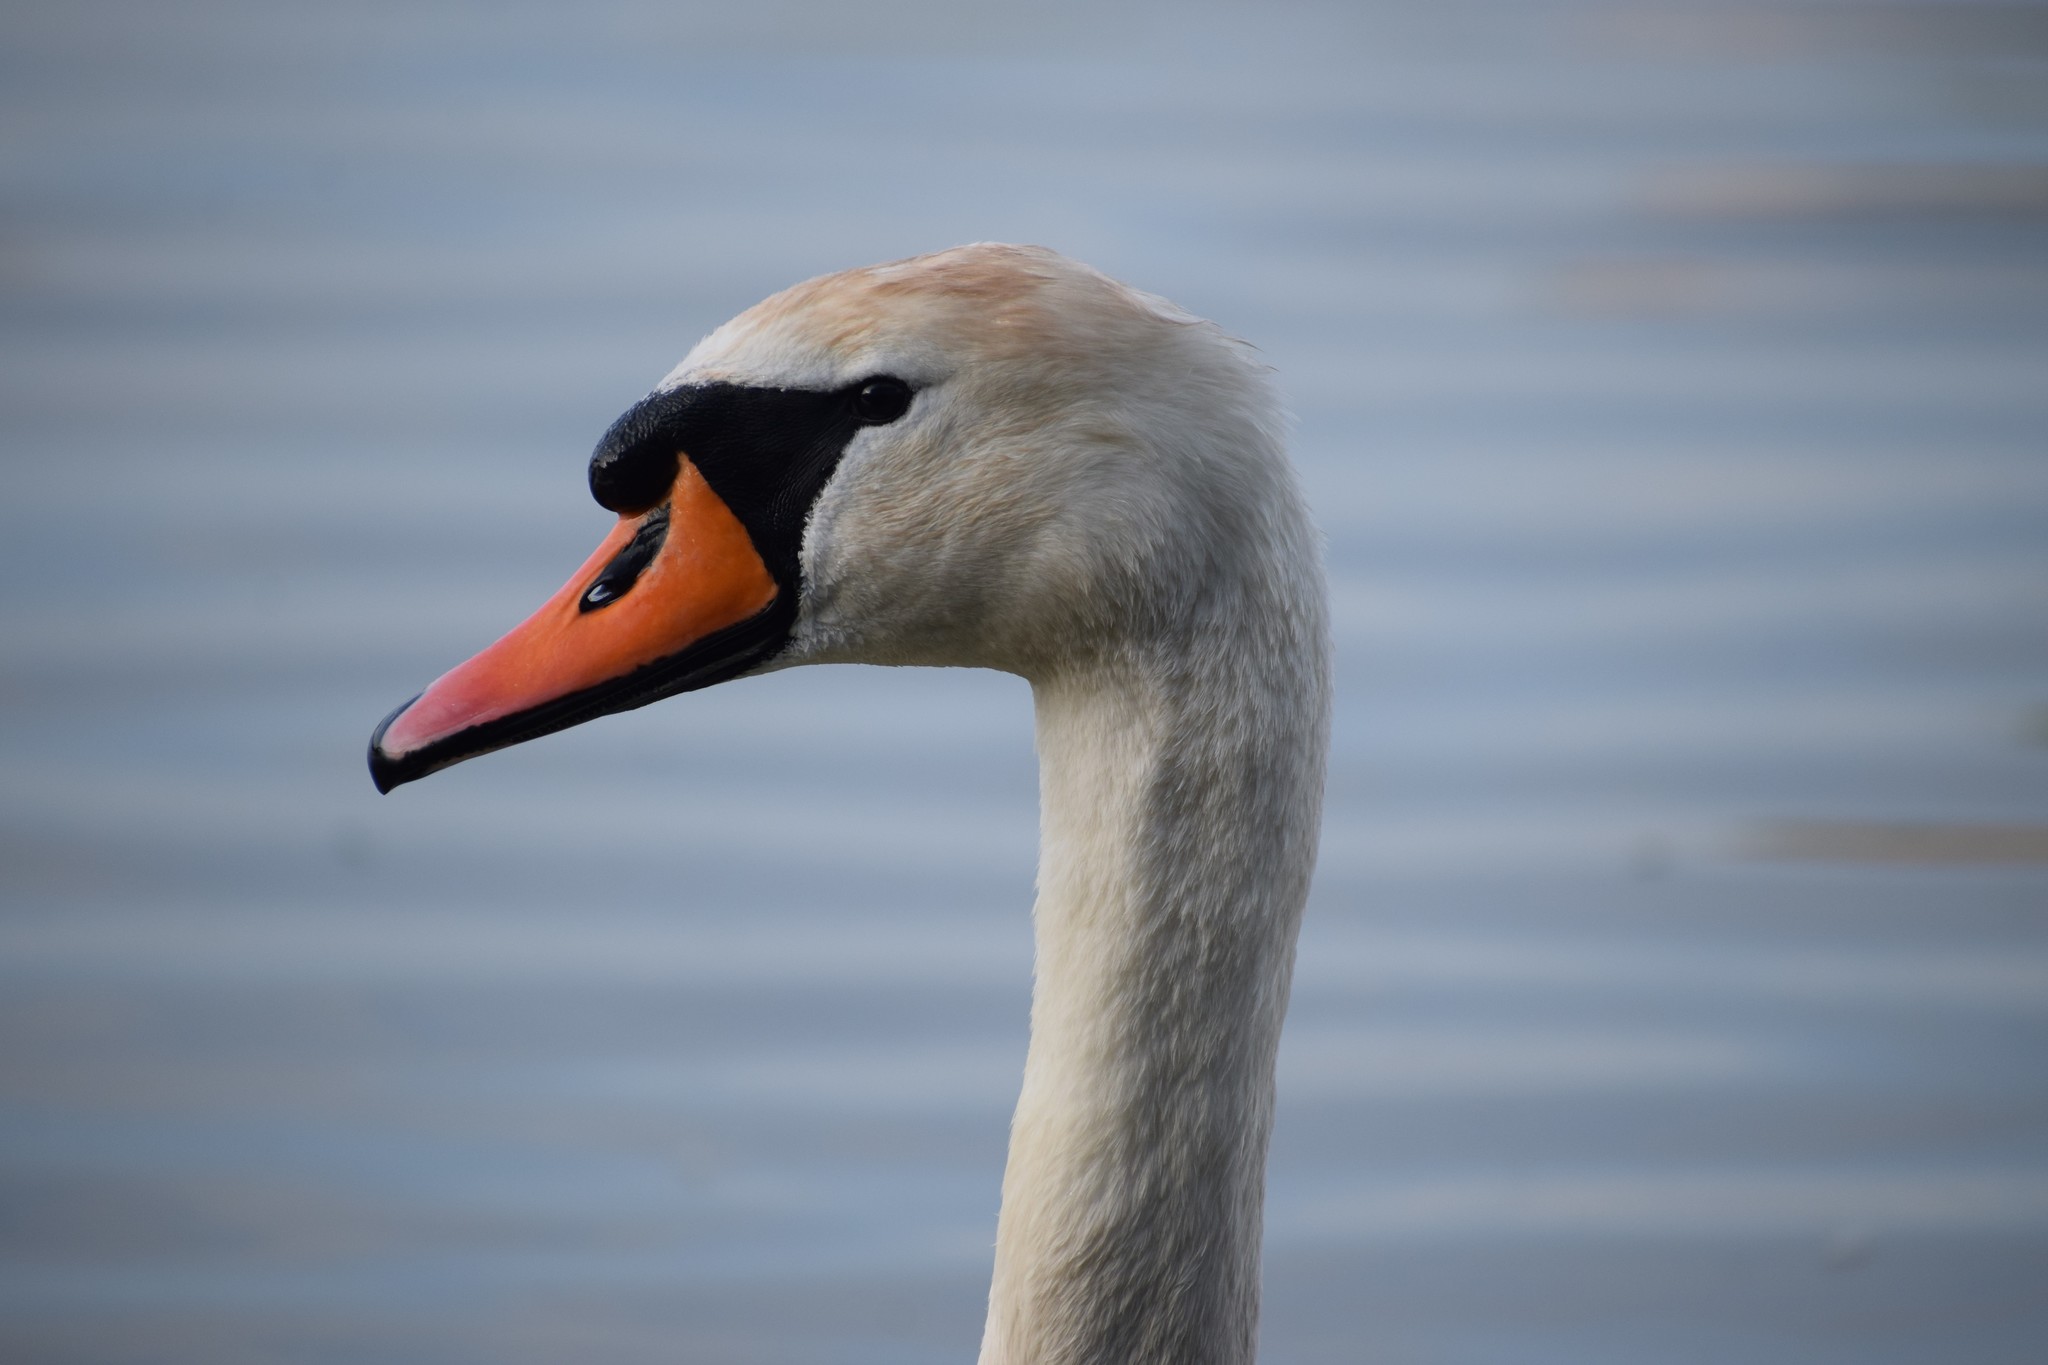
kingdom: Animalia
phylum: Chordata
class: Aves
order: Anseriformes
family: Anatidae
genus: Cygnus
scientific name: Cygnus olor
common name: Mute swan
